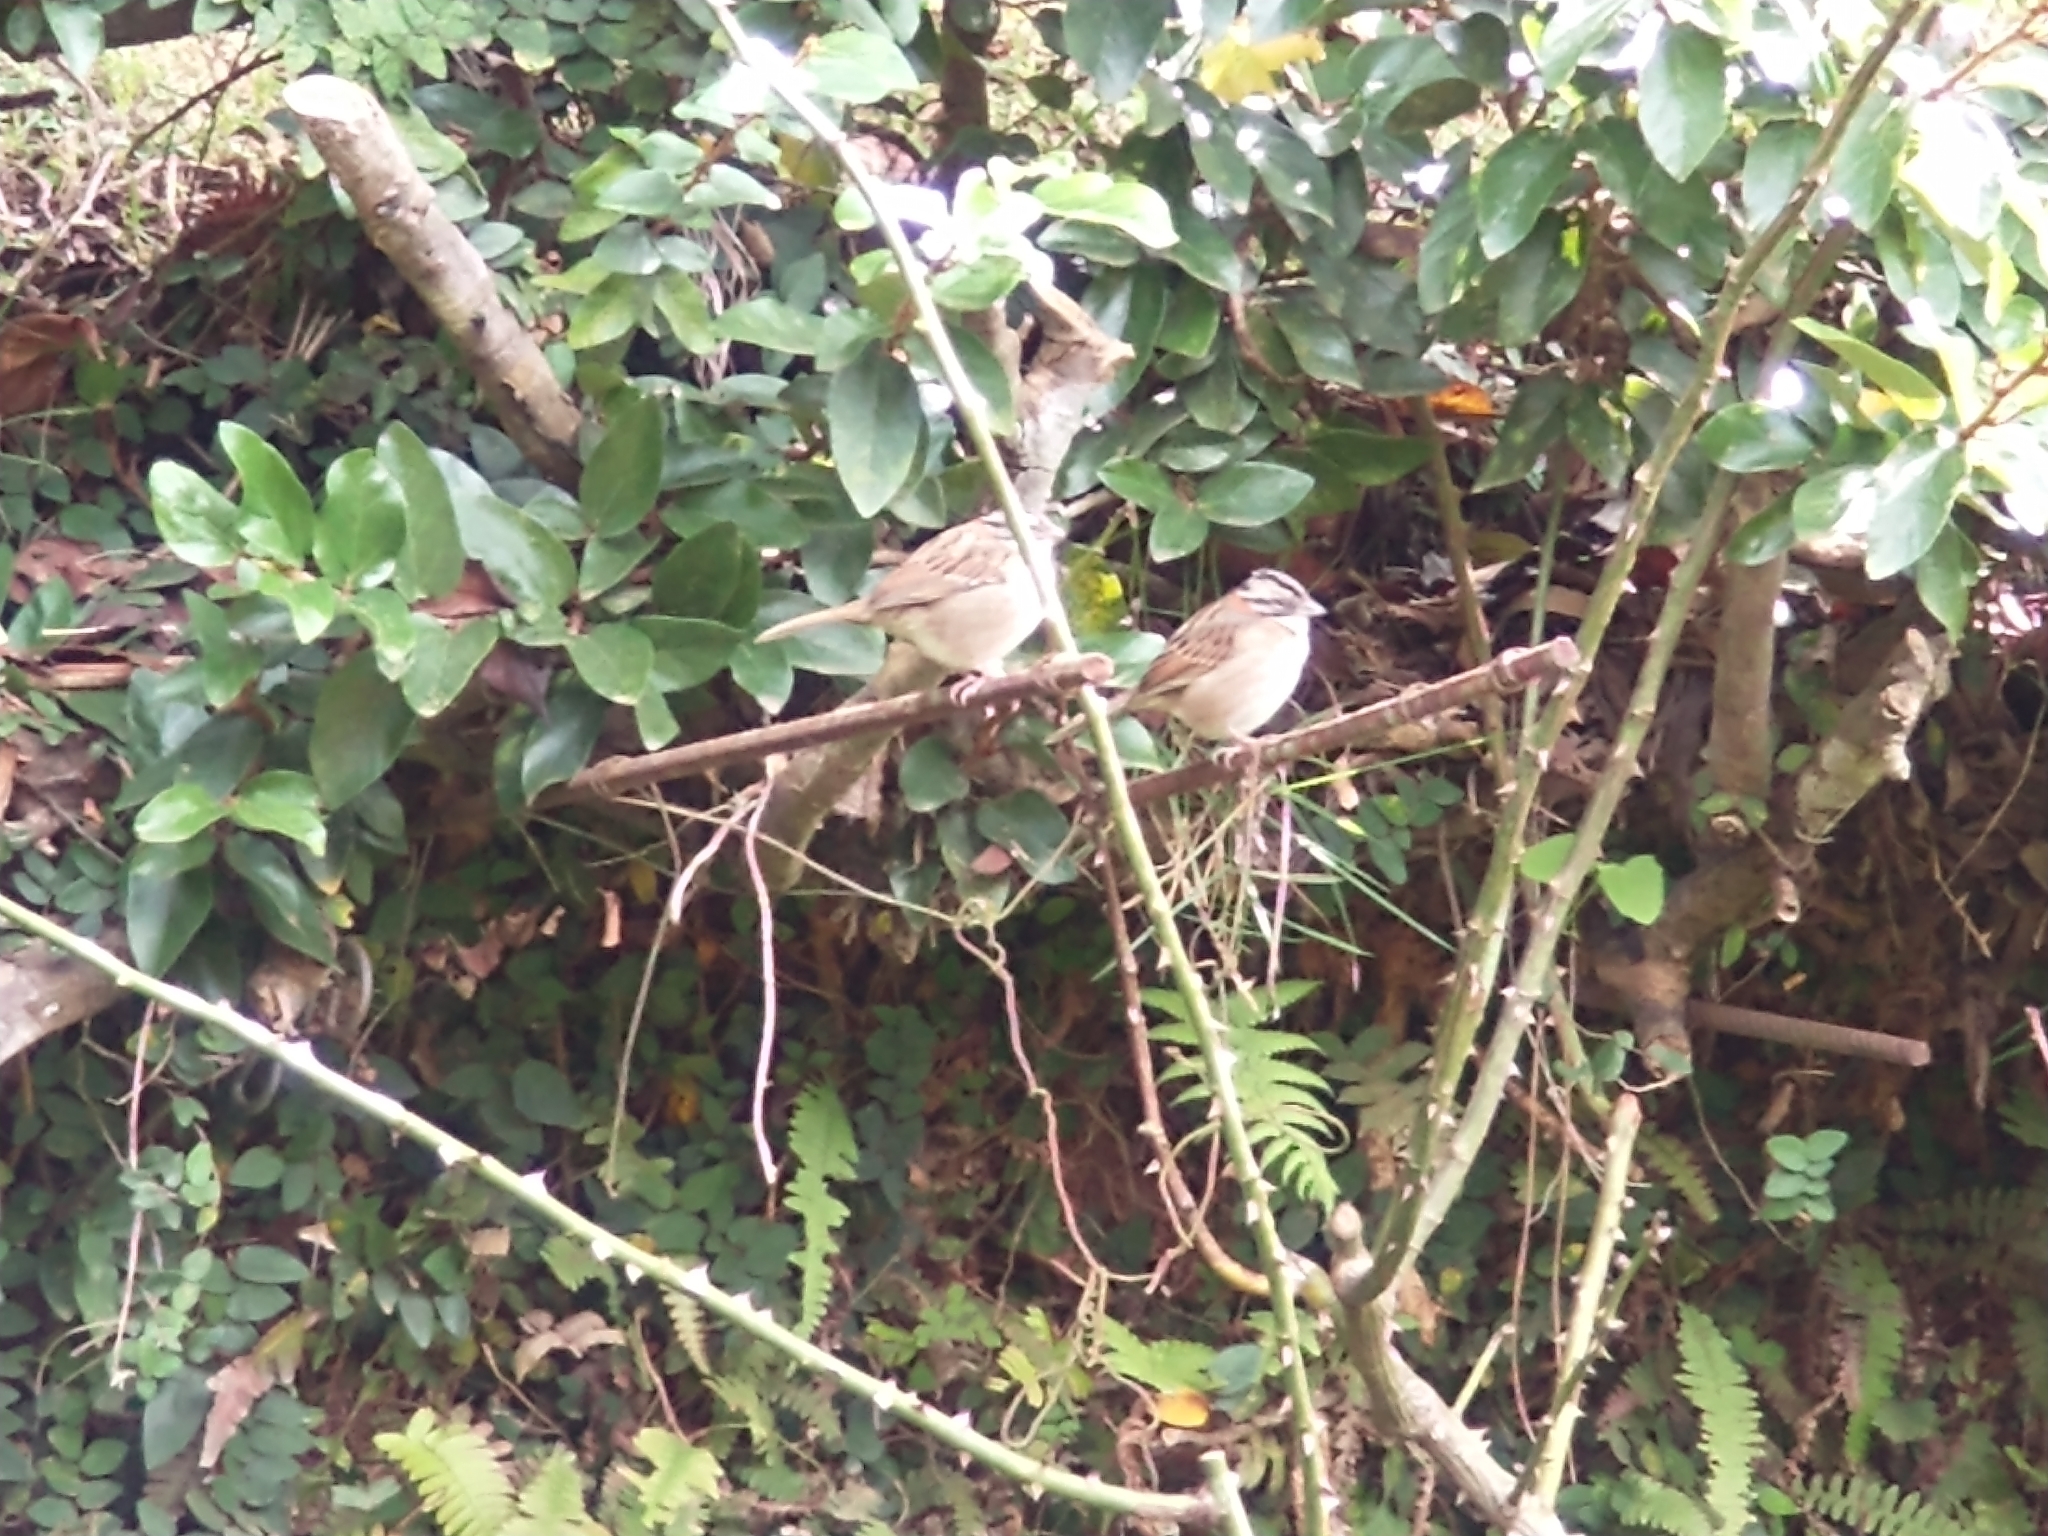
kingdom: Animalia
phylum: Chordata
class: Aves
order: Passeriformes
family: Passerellidae
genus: Zonotrichia
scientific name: Zonotrichia capensis
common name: Rufous-collared sparrow
